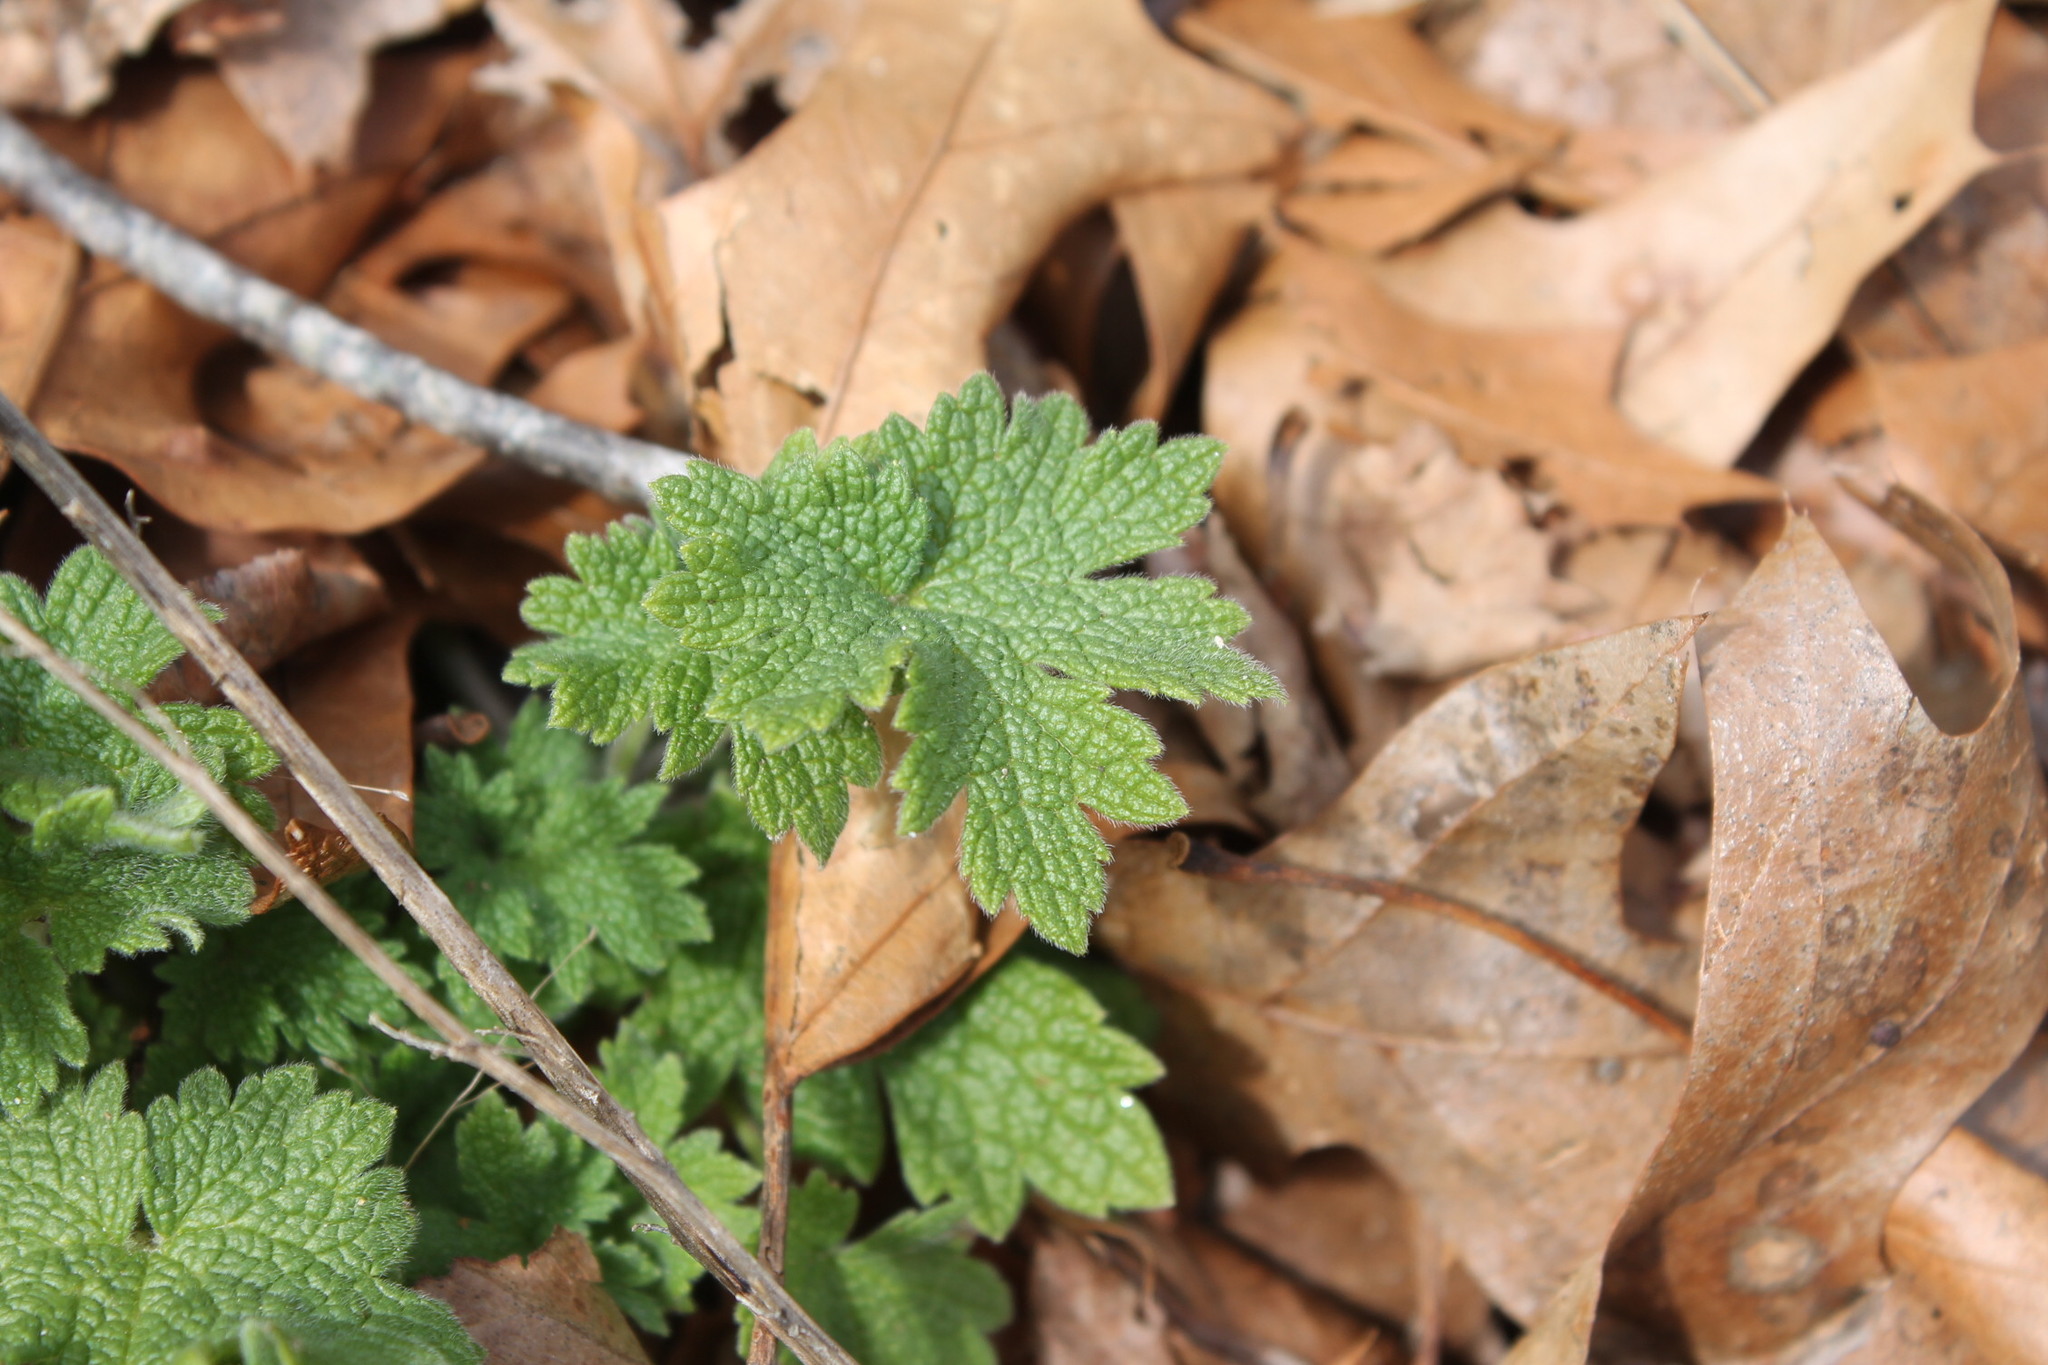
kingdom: Plantae
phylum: Tracheophyta
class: Magnoliopsida
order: Lamiales
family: Lamiaceae
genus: Leonurus
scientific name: Leonurus cardiaca
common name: Motherwort
